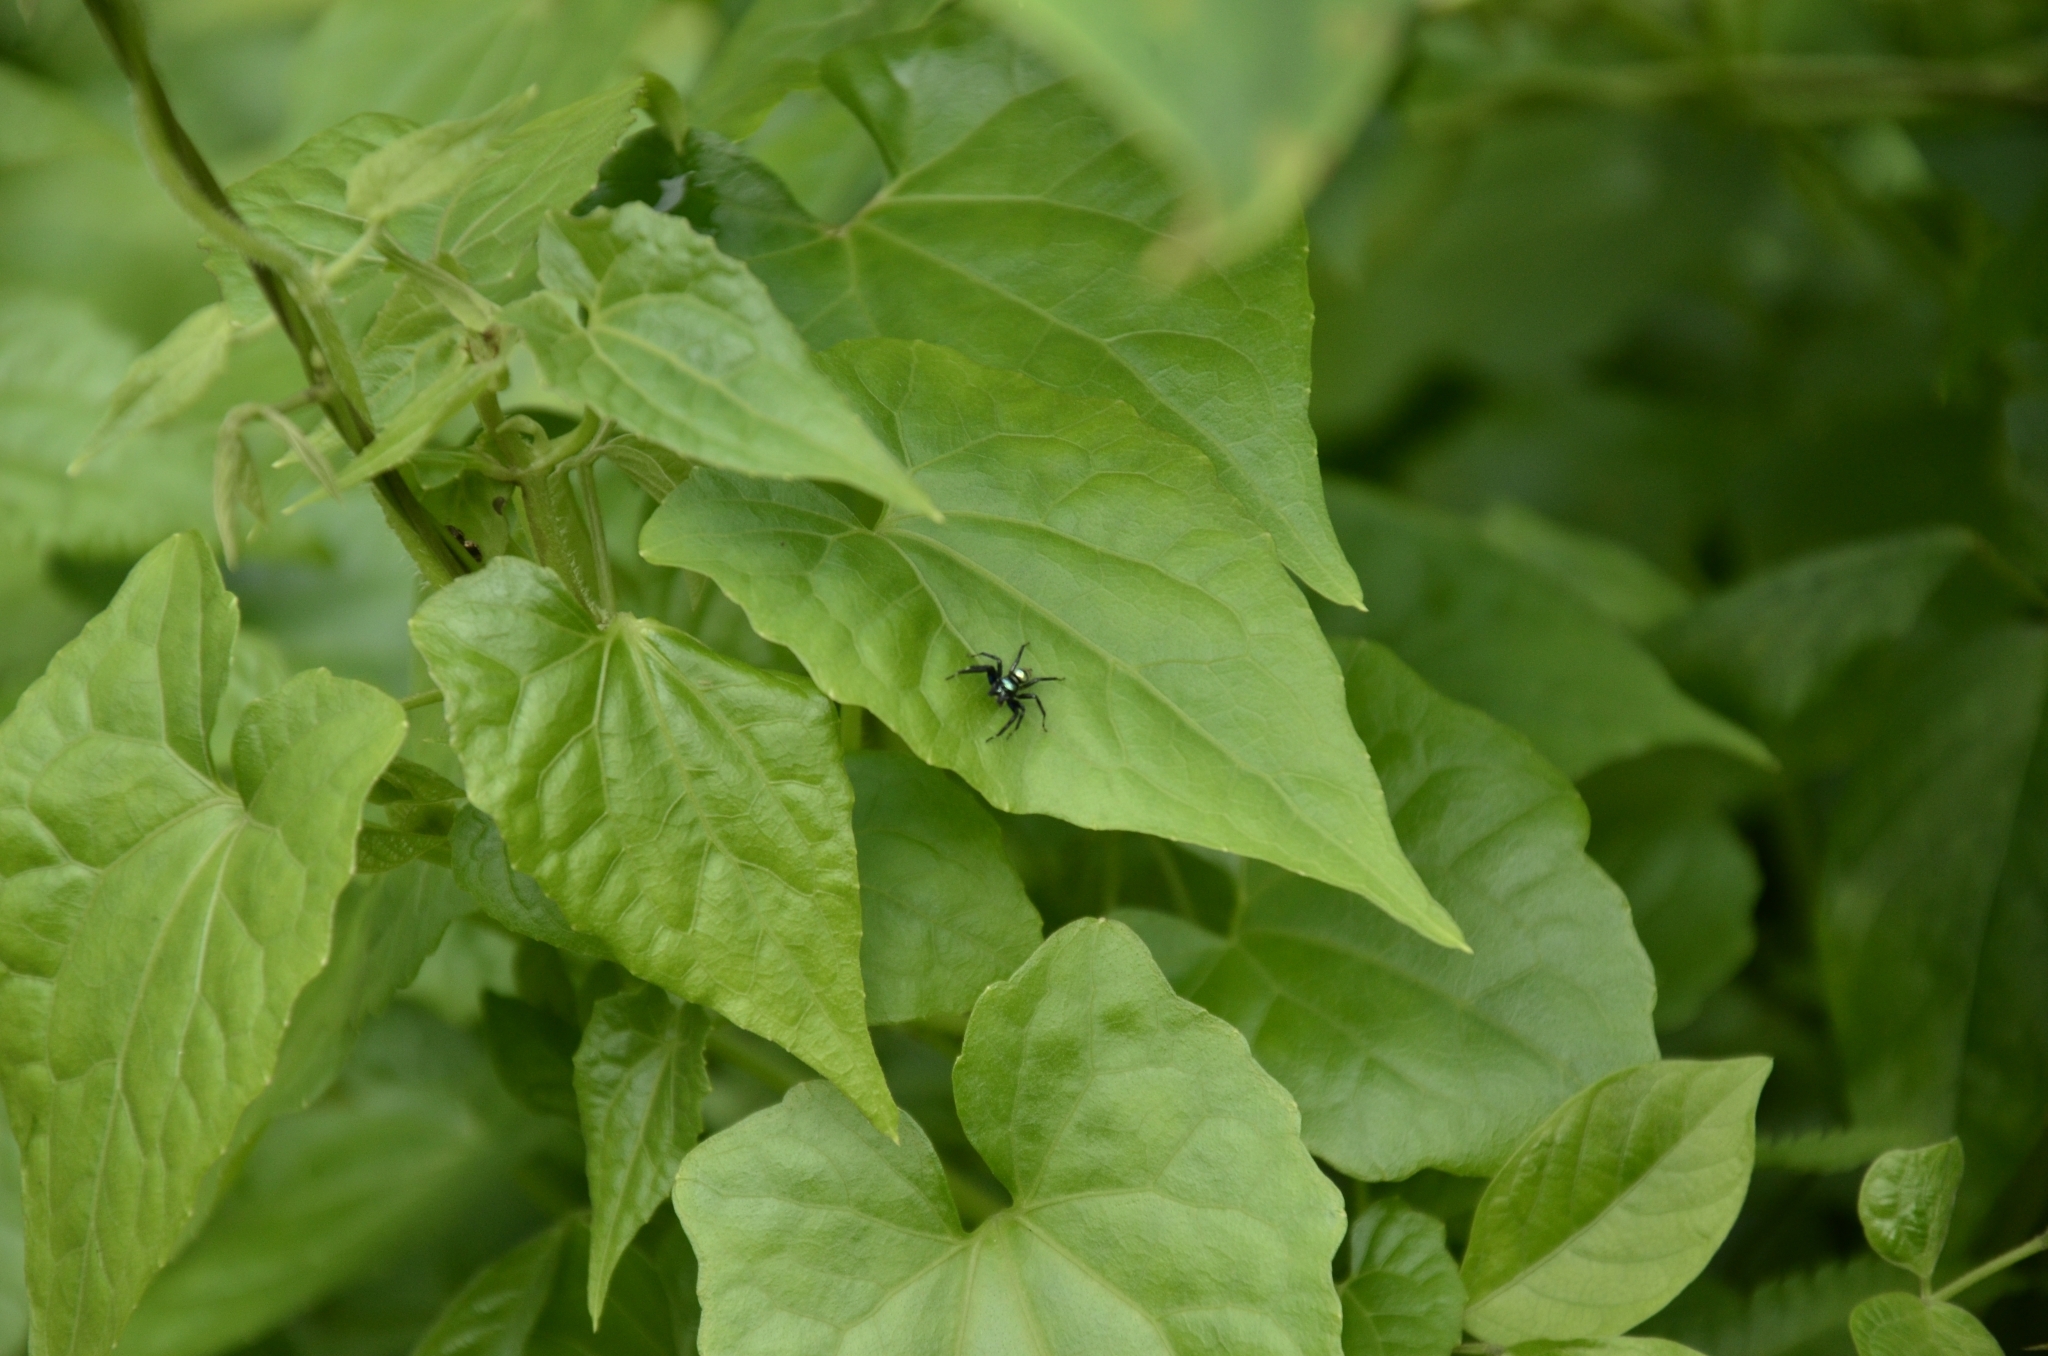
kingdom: Plantae
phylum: Tracheophyta
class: Magnoliopsida
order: Asterales
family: Asteraceae
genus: Mikania
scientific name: Mikania micrantha
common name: Mile-a-minute
